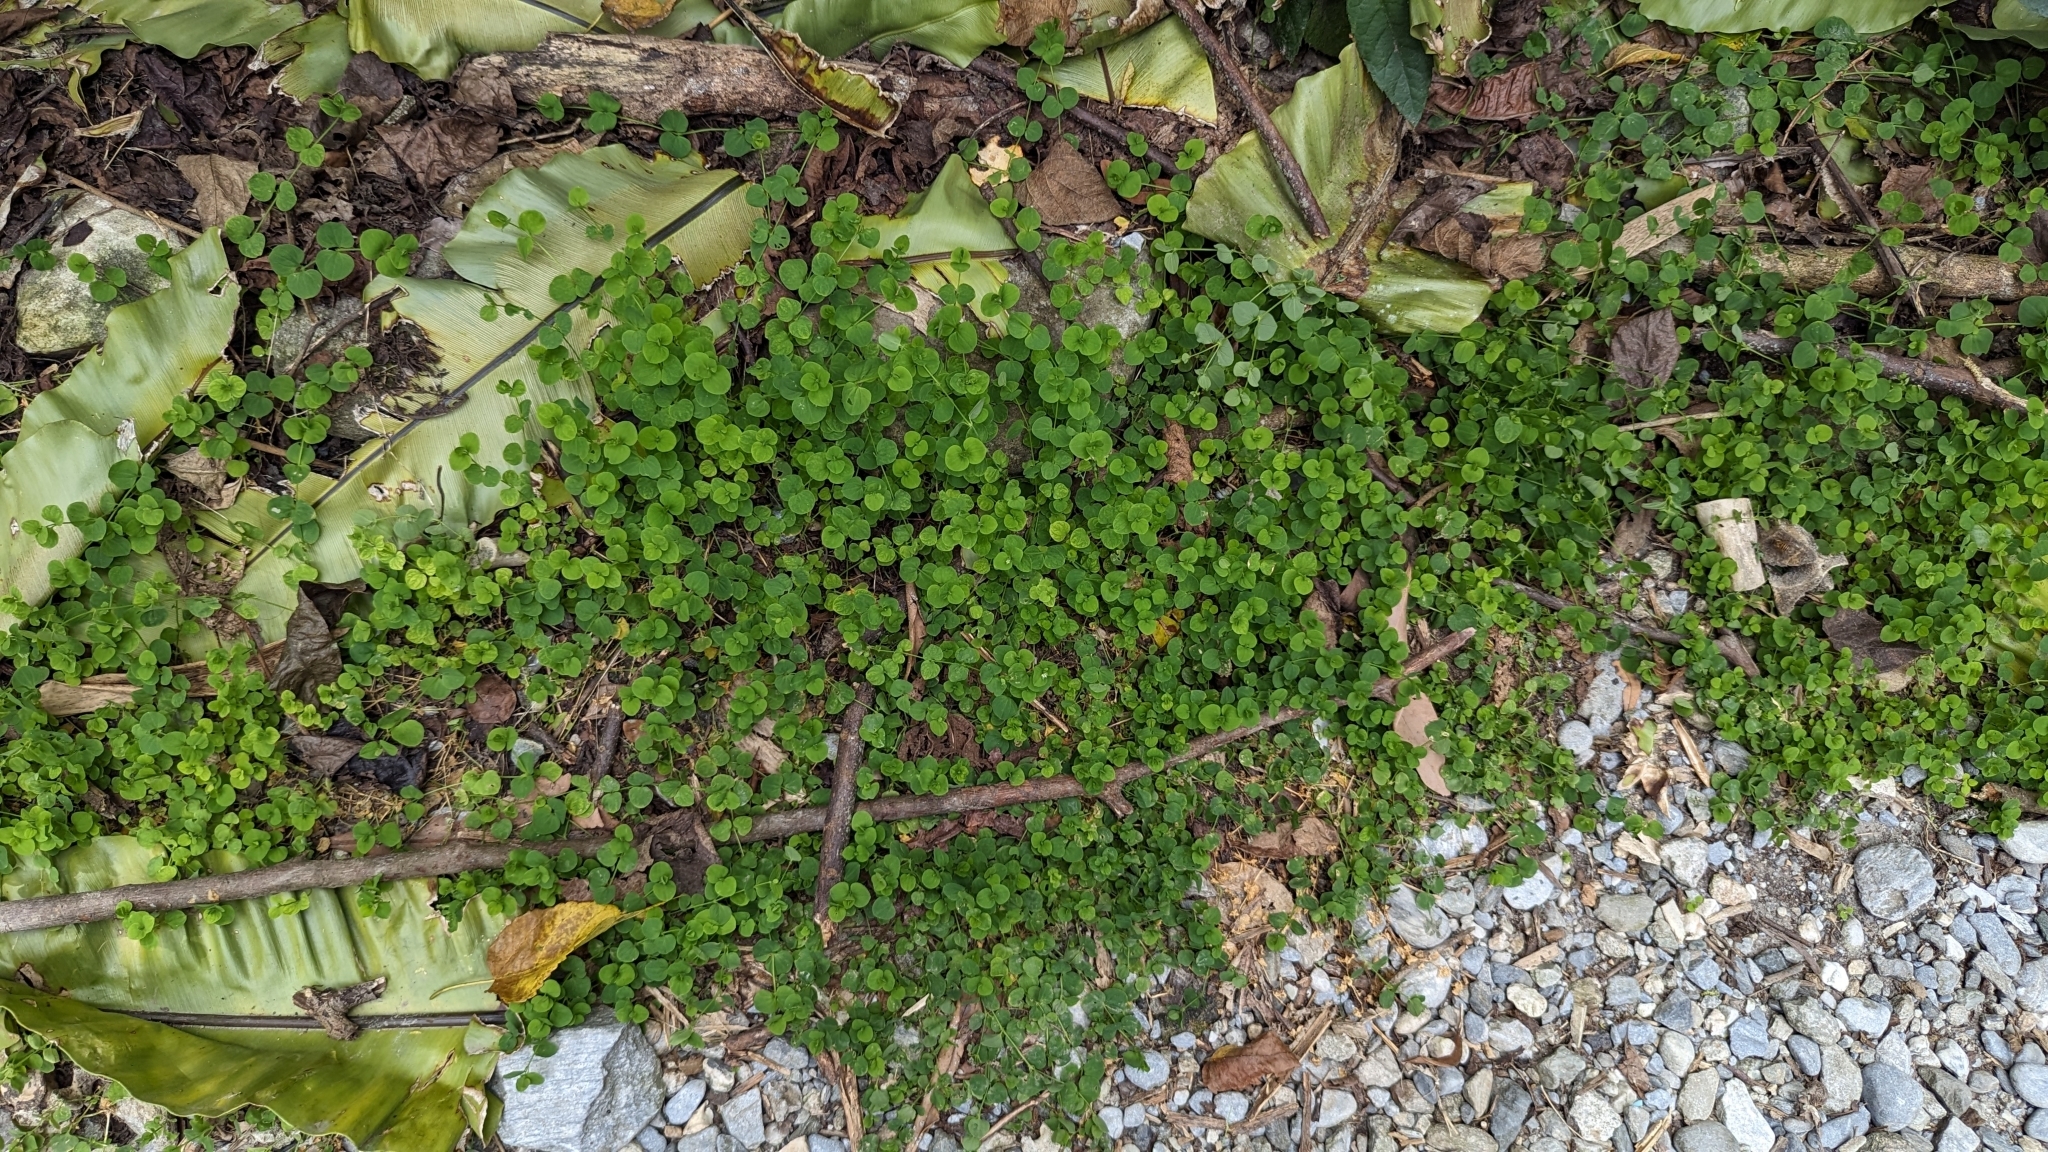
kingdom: Plantae
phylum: Tracheophyta
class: Magnoliopsida
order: Caryophyllales
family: Caryophyllaceae
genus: Drymaria
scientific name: Drymaria cordata
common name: Whitesnow
